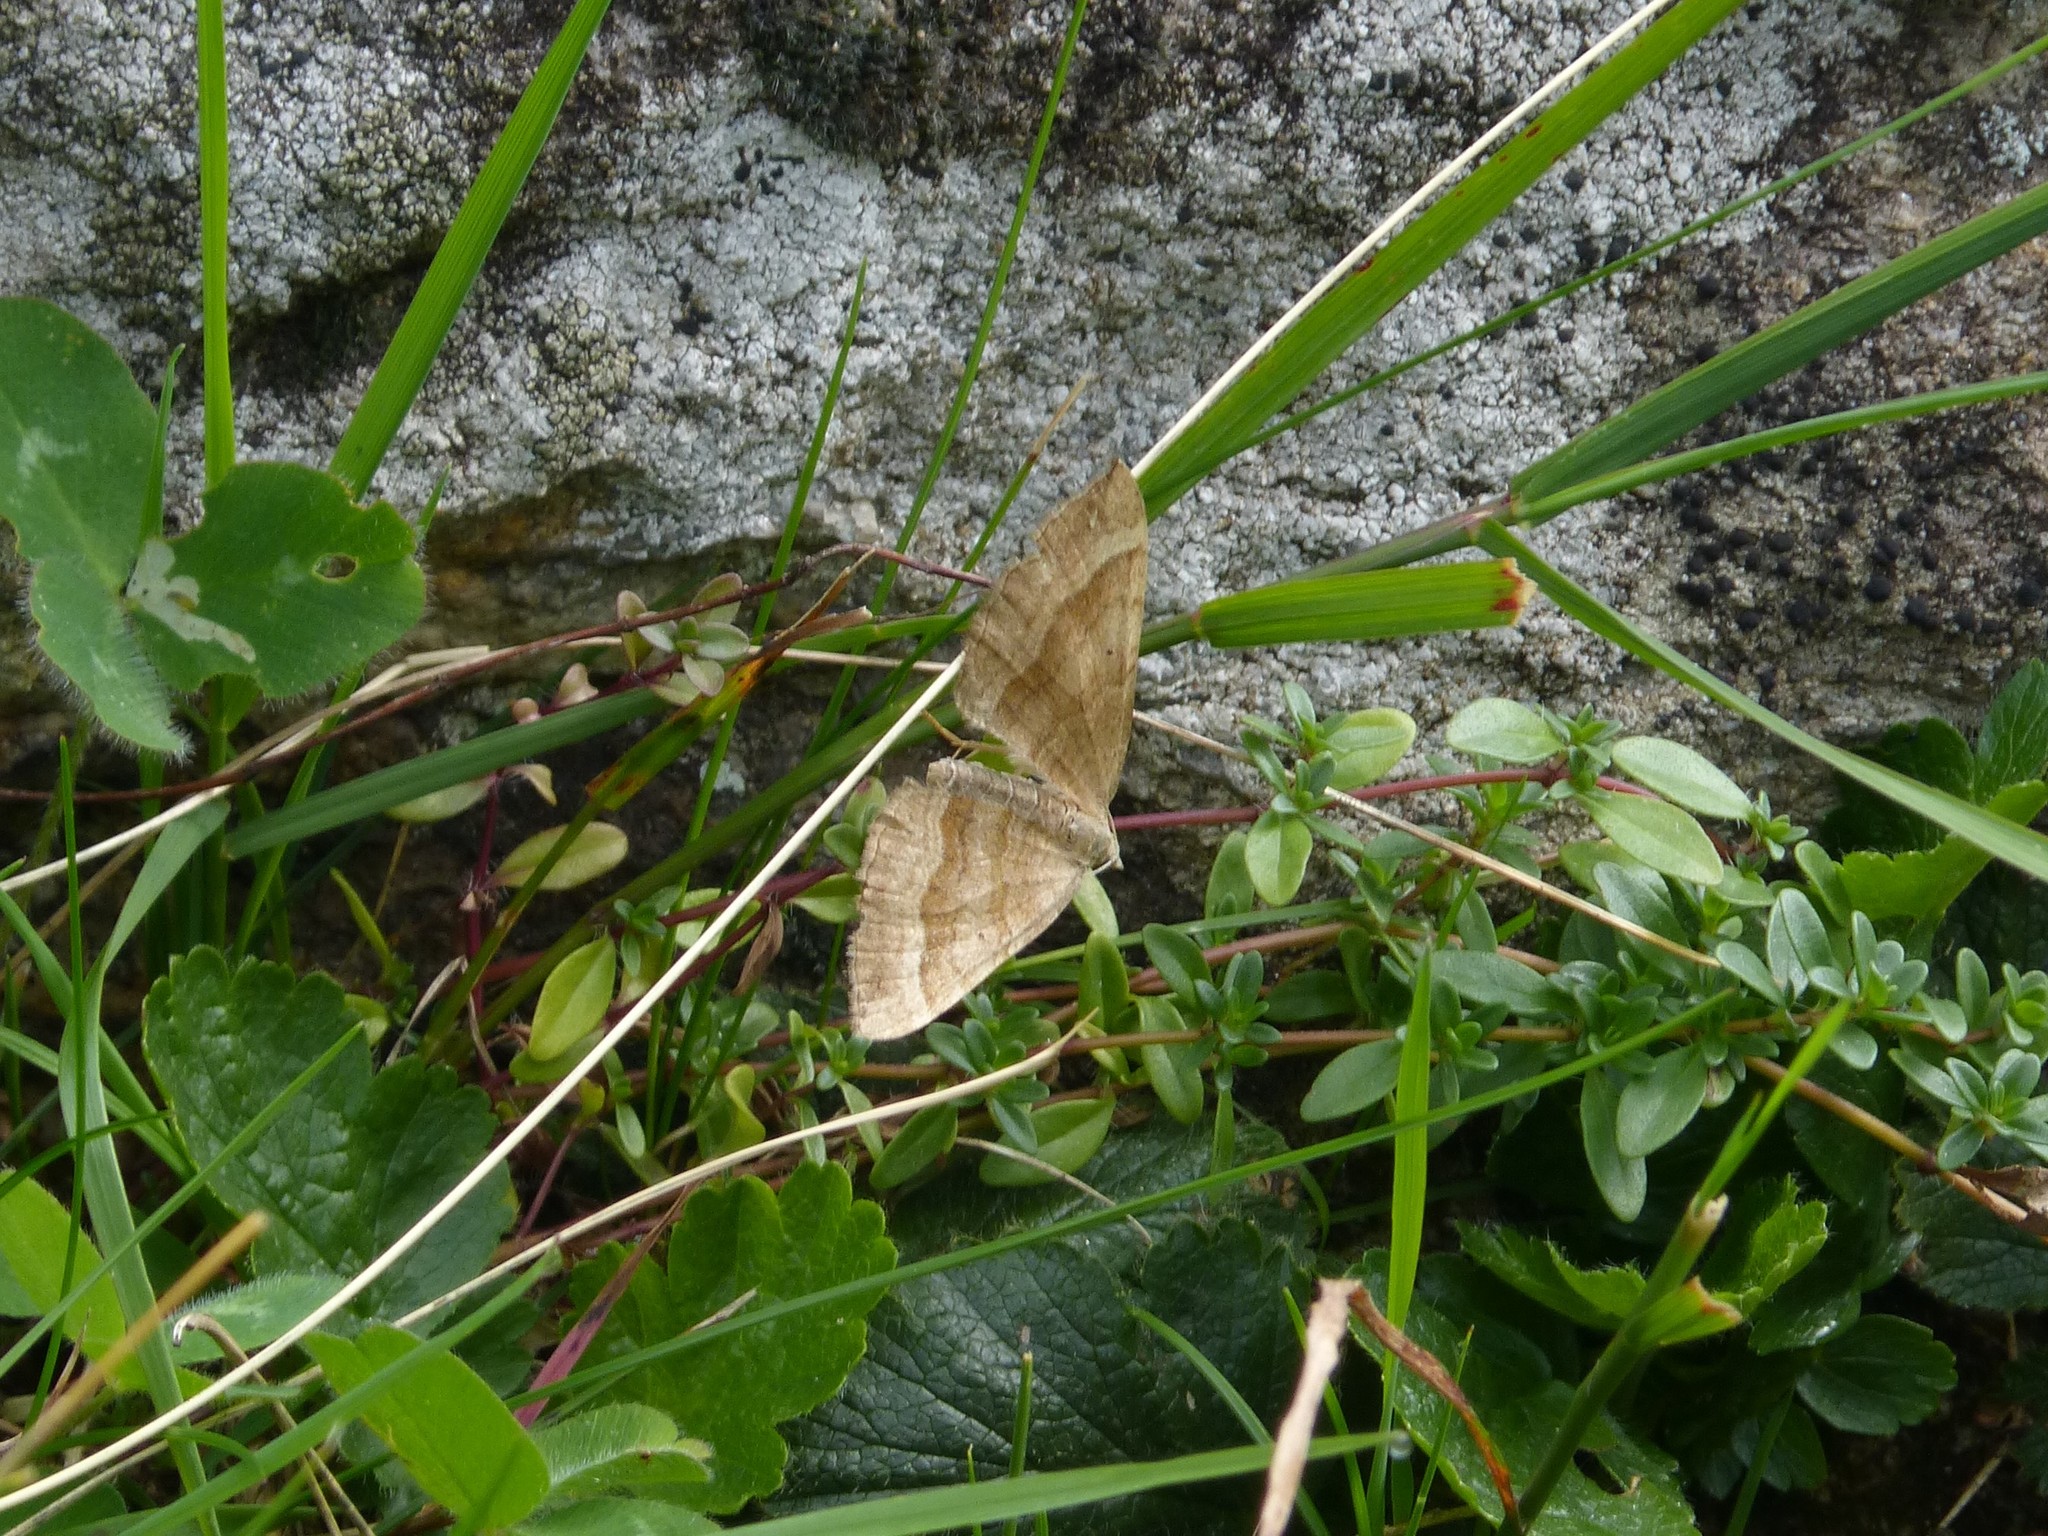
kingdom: Animalia
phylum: Arthropoda
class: Insecta
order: Lepidoptera
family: Geometridae
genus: Scotopteryx
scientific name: Scotopteryx chenopodiata
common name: Shaded broad-bar
